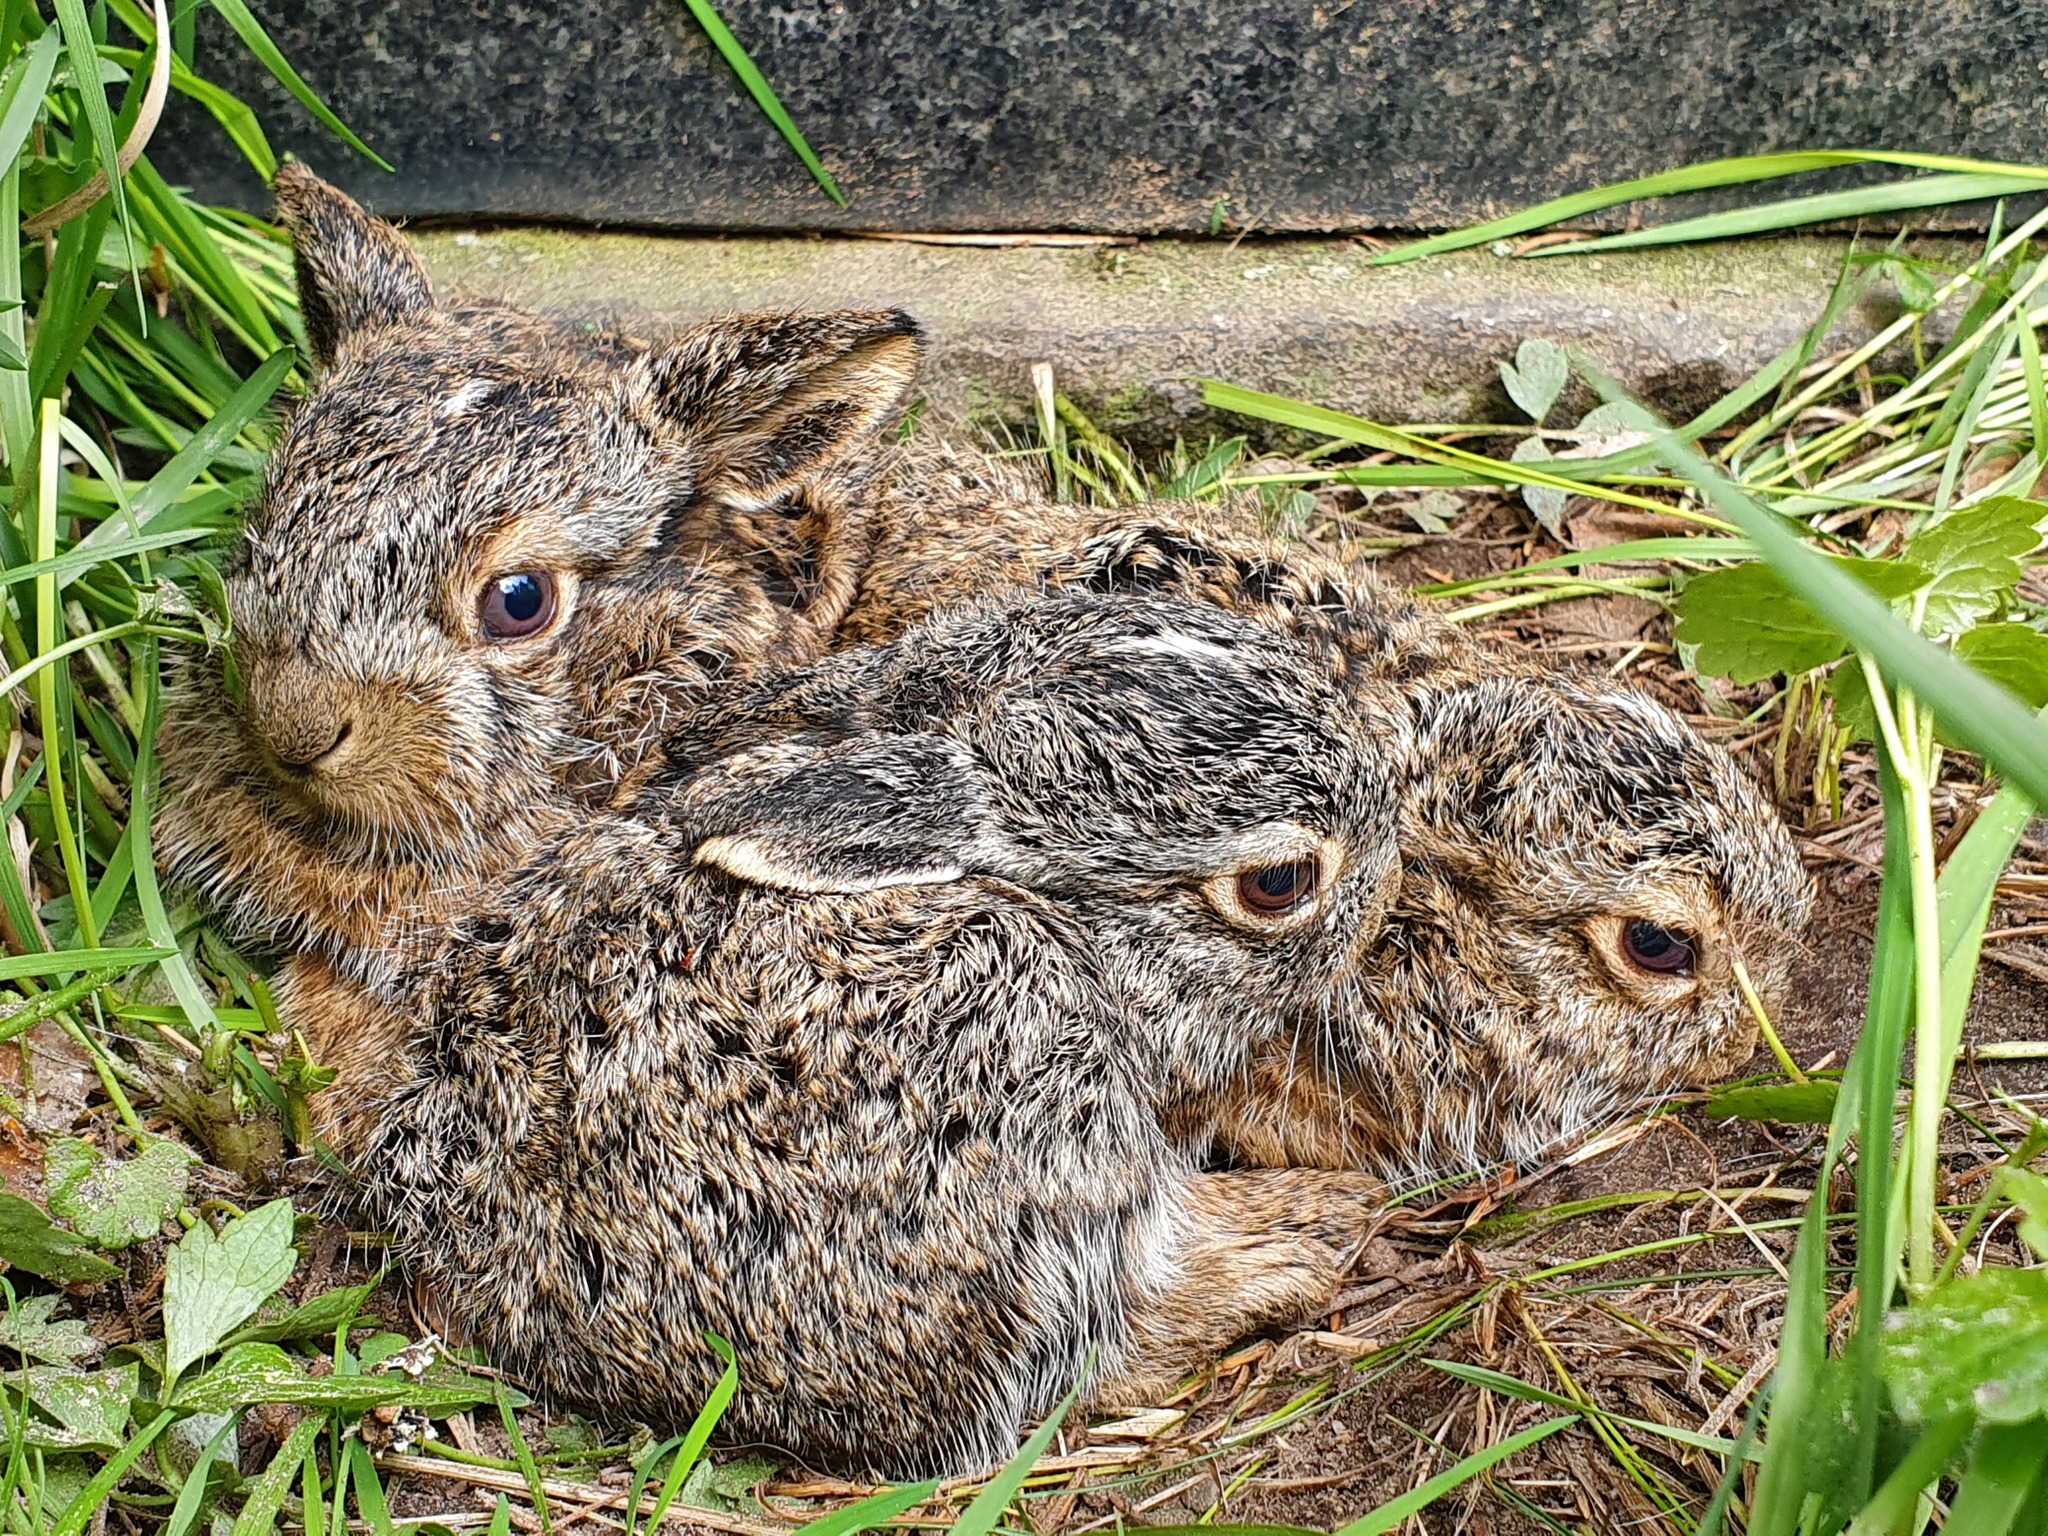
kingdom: Animalia
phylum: Chordata
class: Mammalia
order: Lagomorpha
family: Leporidae
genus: Lepus
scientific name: Lepus europaeus
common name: European hare
